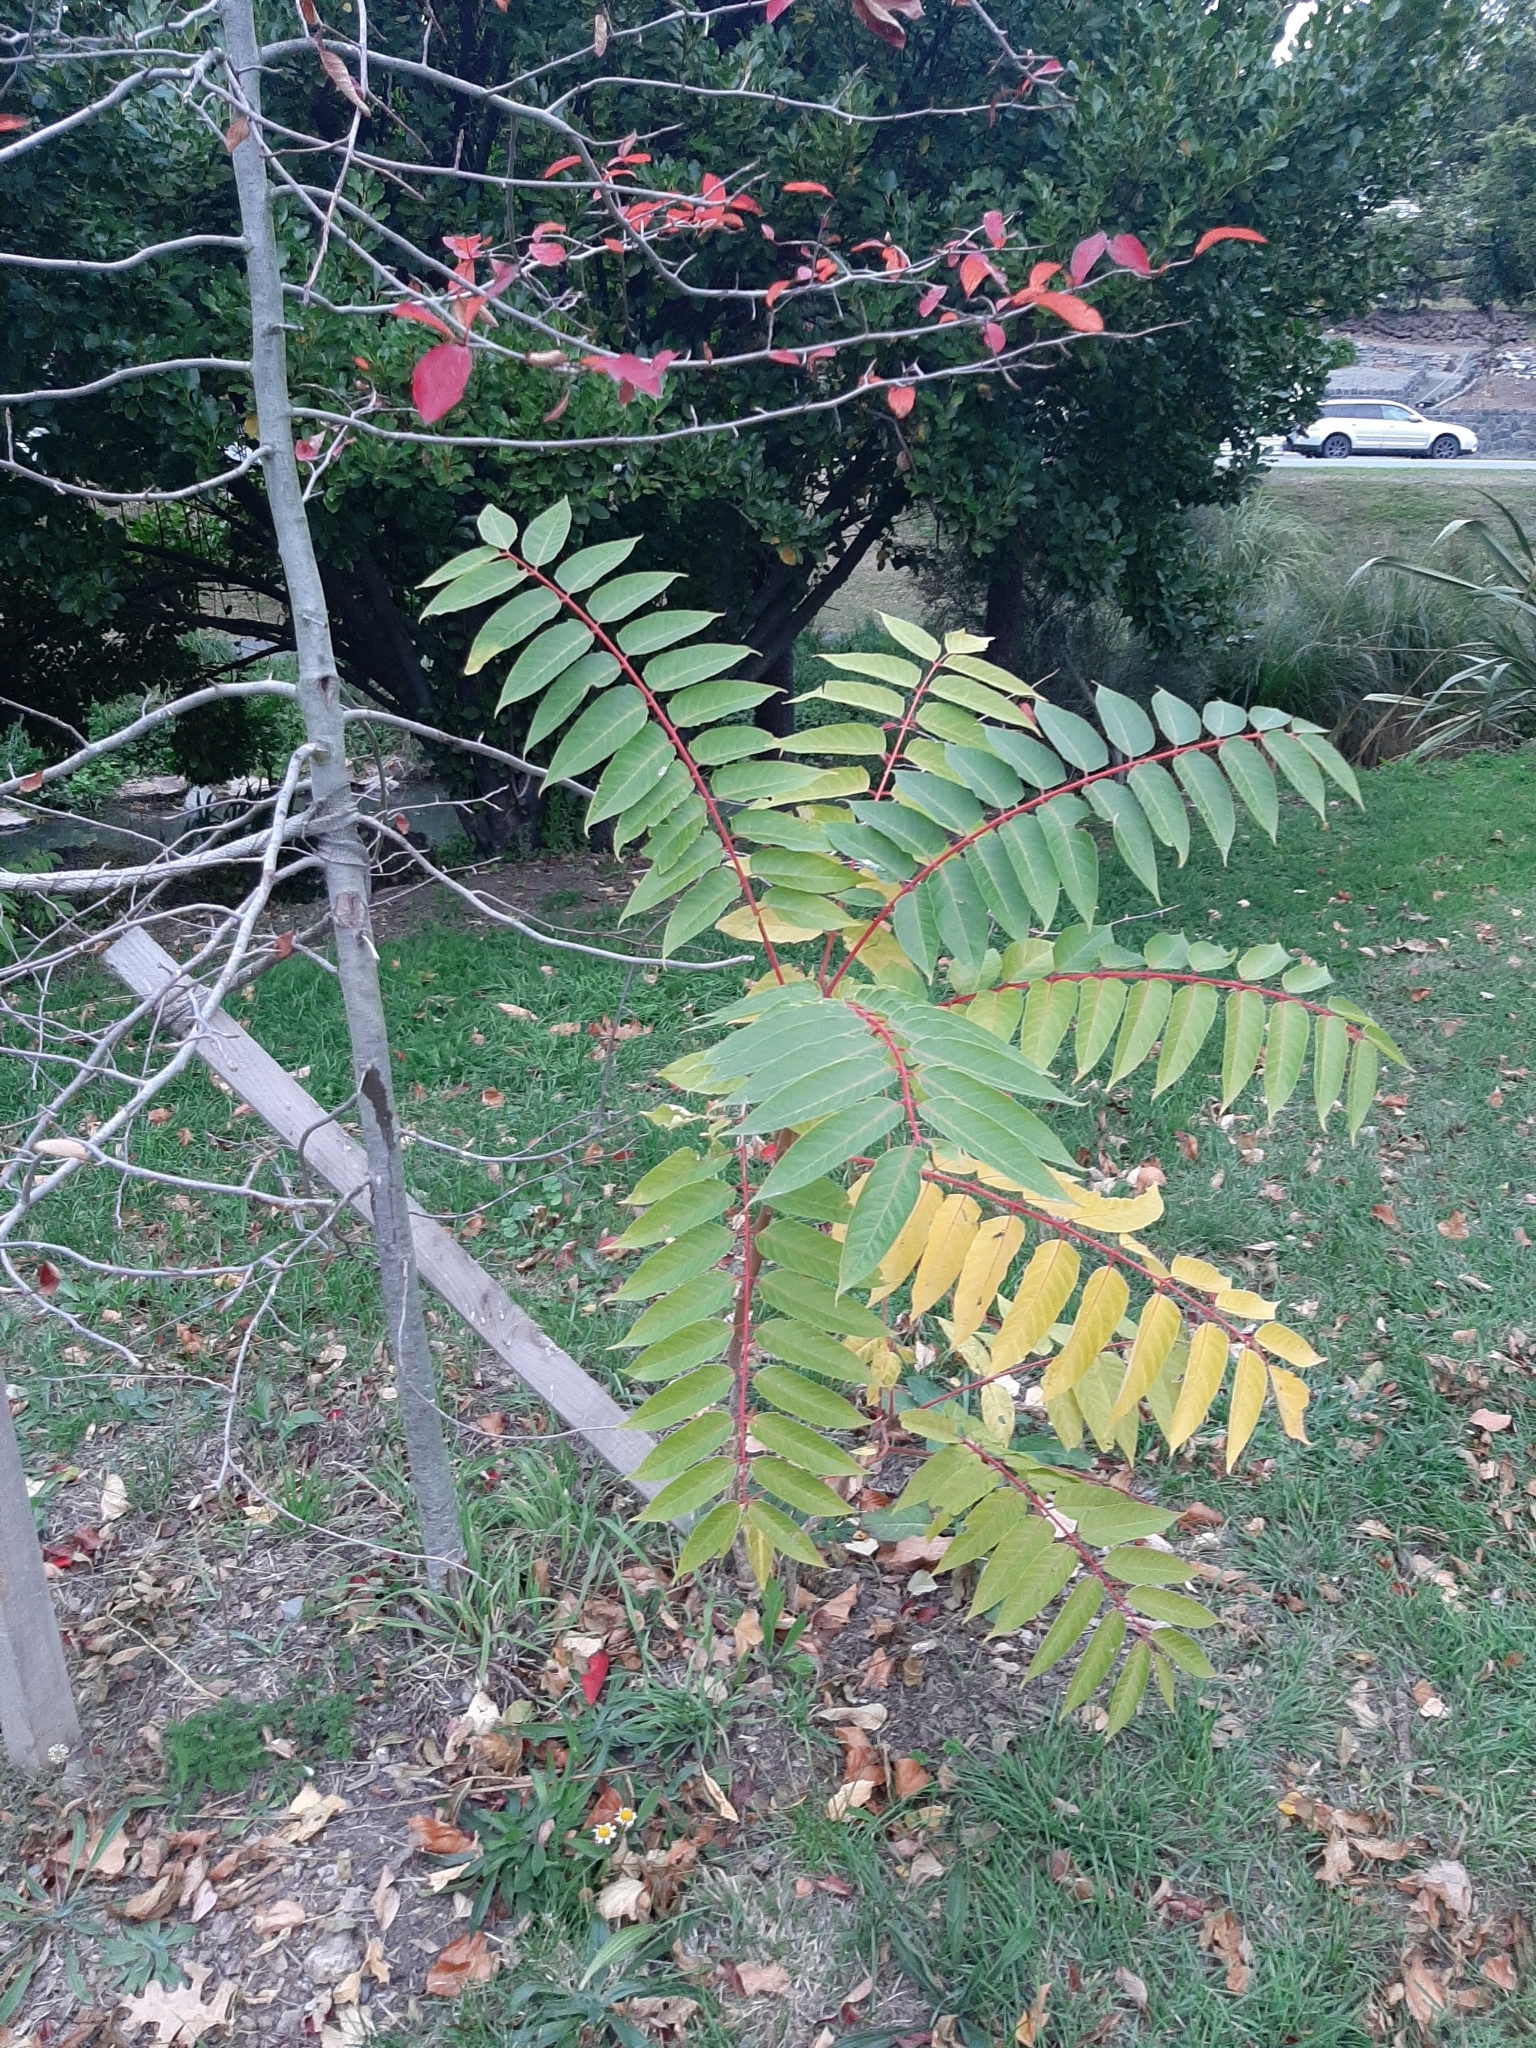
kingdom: Plantae
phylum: Tracheophyta
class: Magnoliopsida
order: Sapindales
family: Simaroubaceae
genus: Ailanthus
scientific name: Ailanthus altissima
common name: Tree-of-heaven
